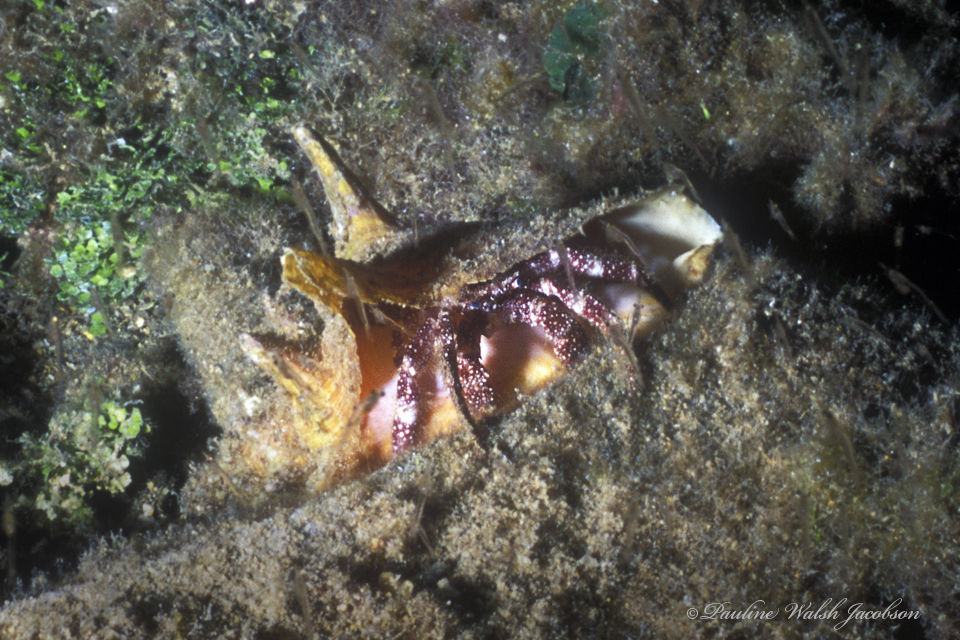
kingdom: Animalia
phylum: Arthropoda
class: Malacostraca
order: Decapoda
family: Diogenidae
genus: Paguristes
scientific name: Paguristes puncticeps
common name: White speckled hermit
